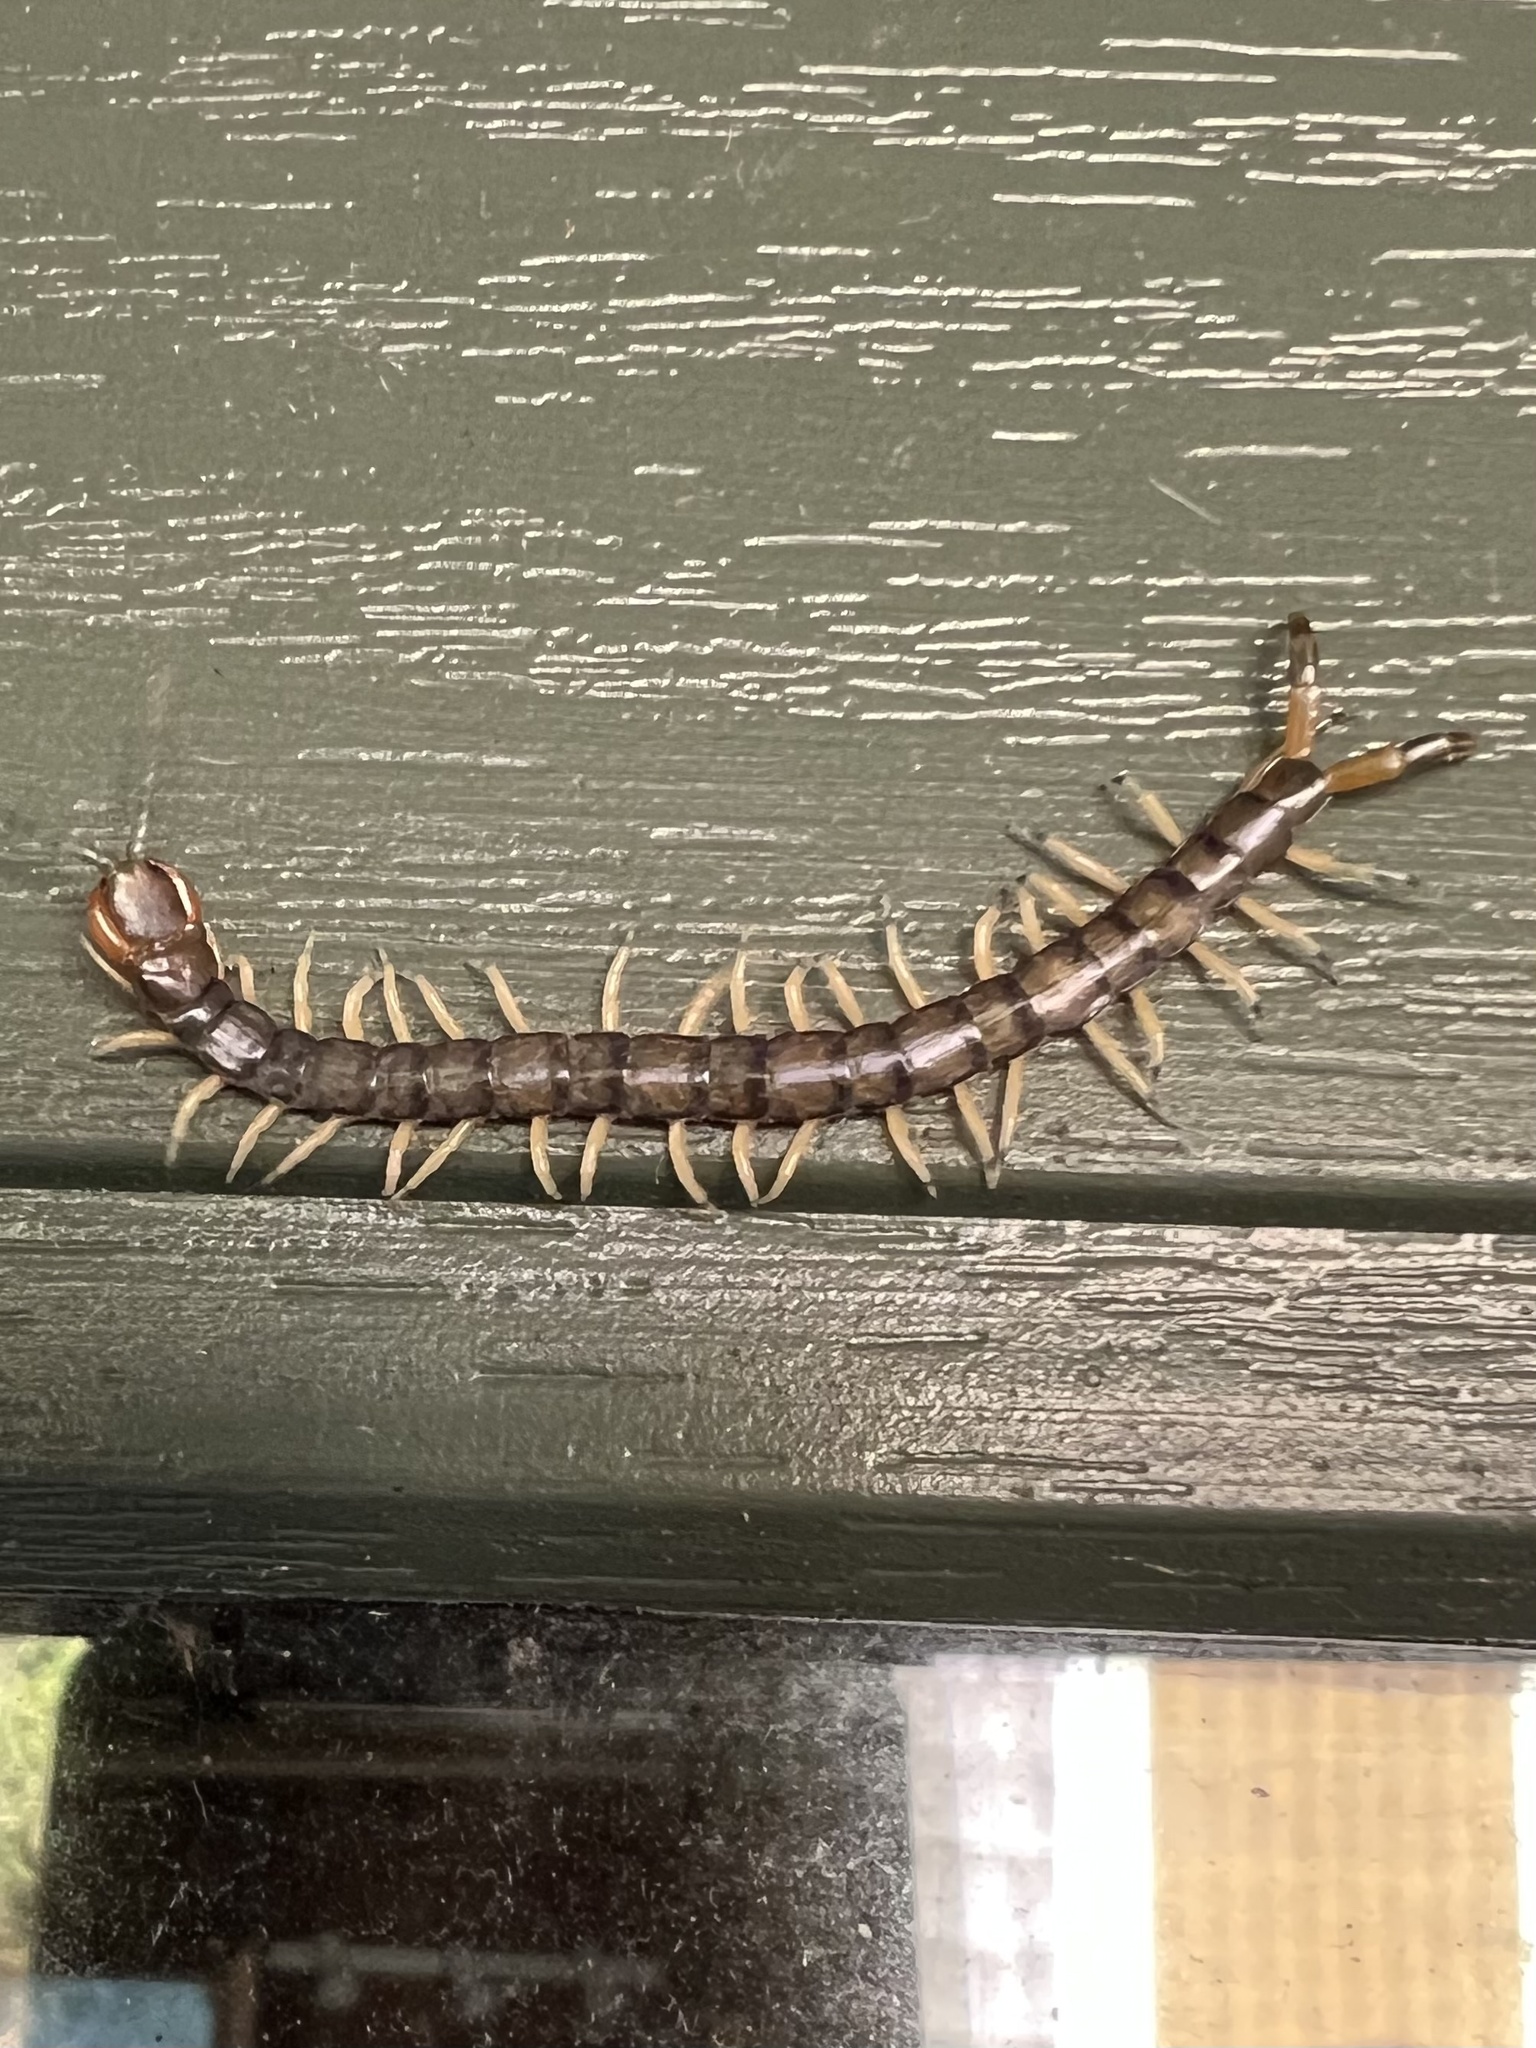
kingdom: Animalia
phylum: Arthropoda
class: Chilopoda
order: Scolopendromorpha
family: Scolopendridae
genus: Hemiscolopendra
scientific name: Hemiscolopendra marginata
